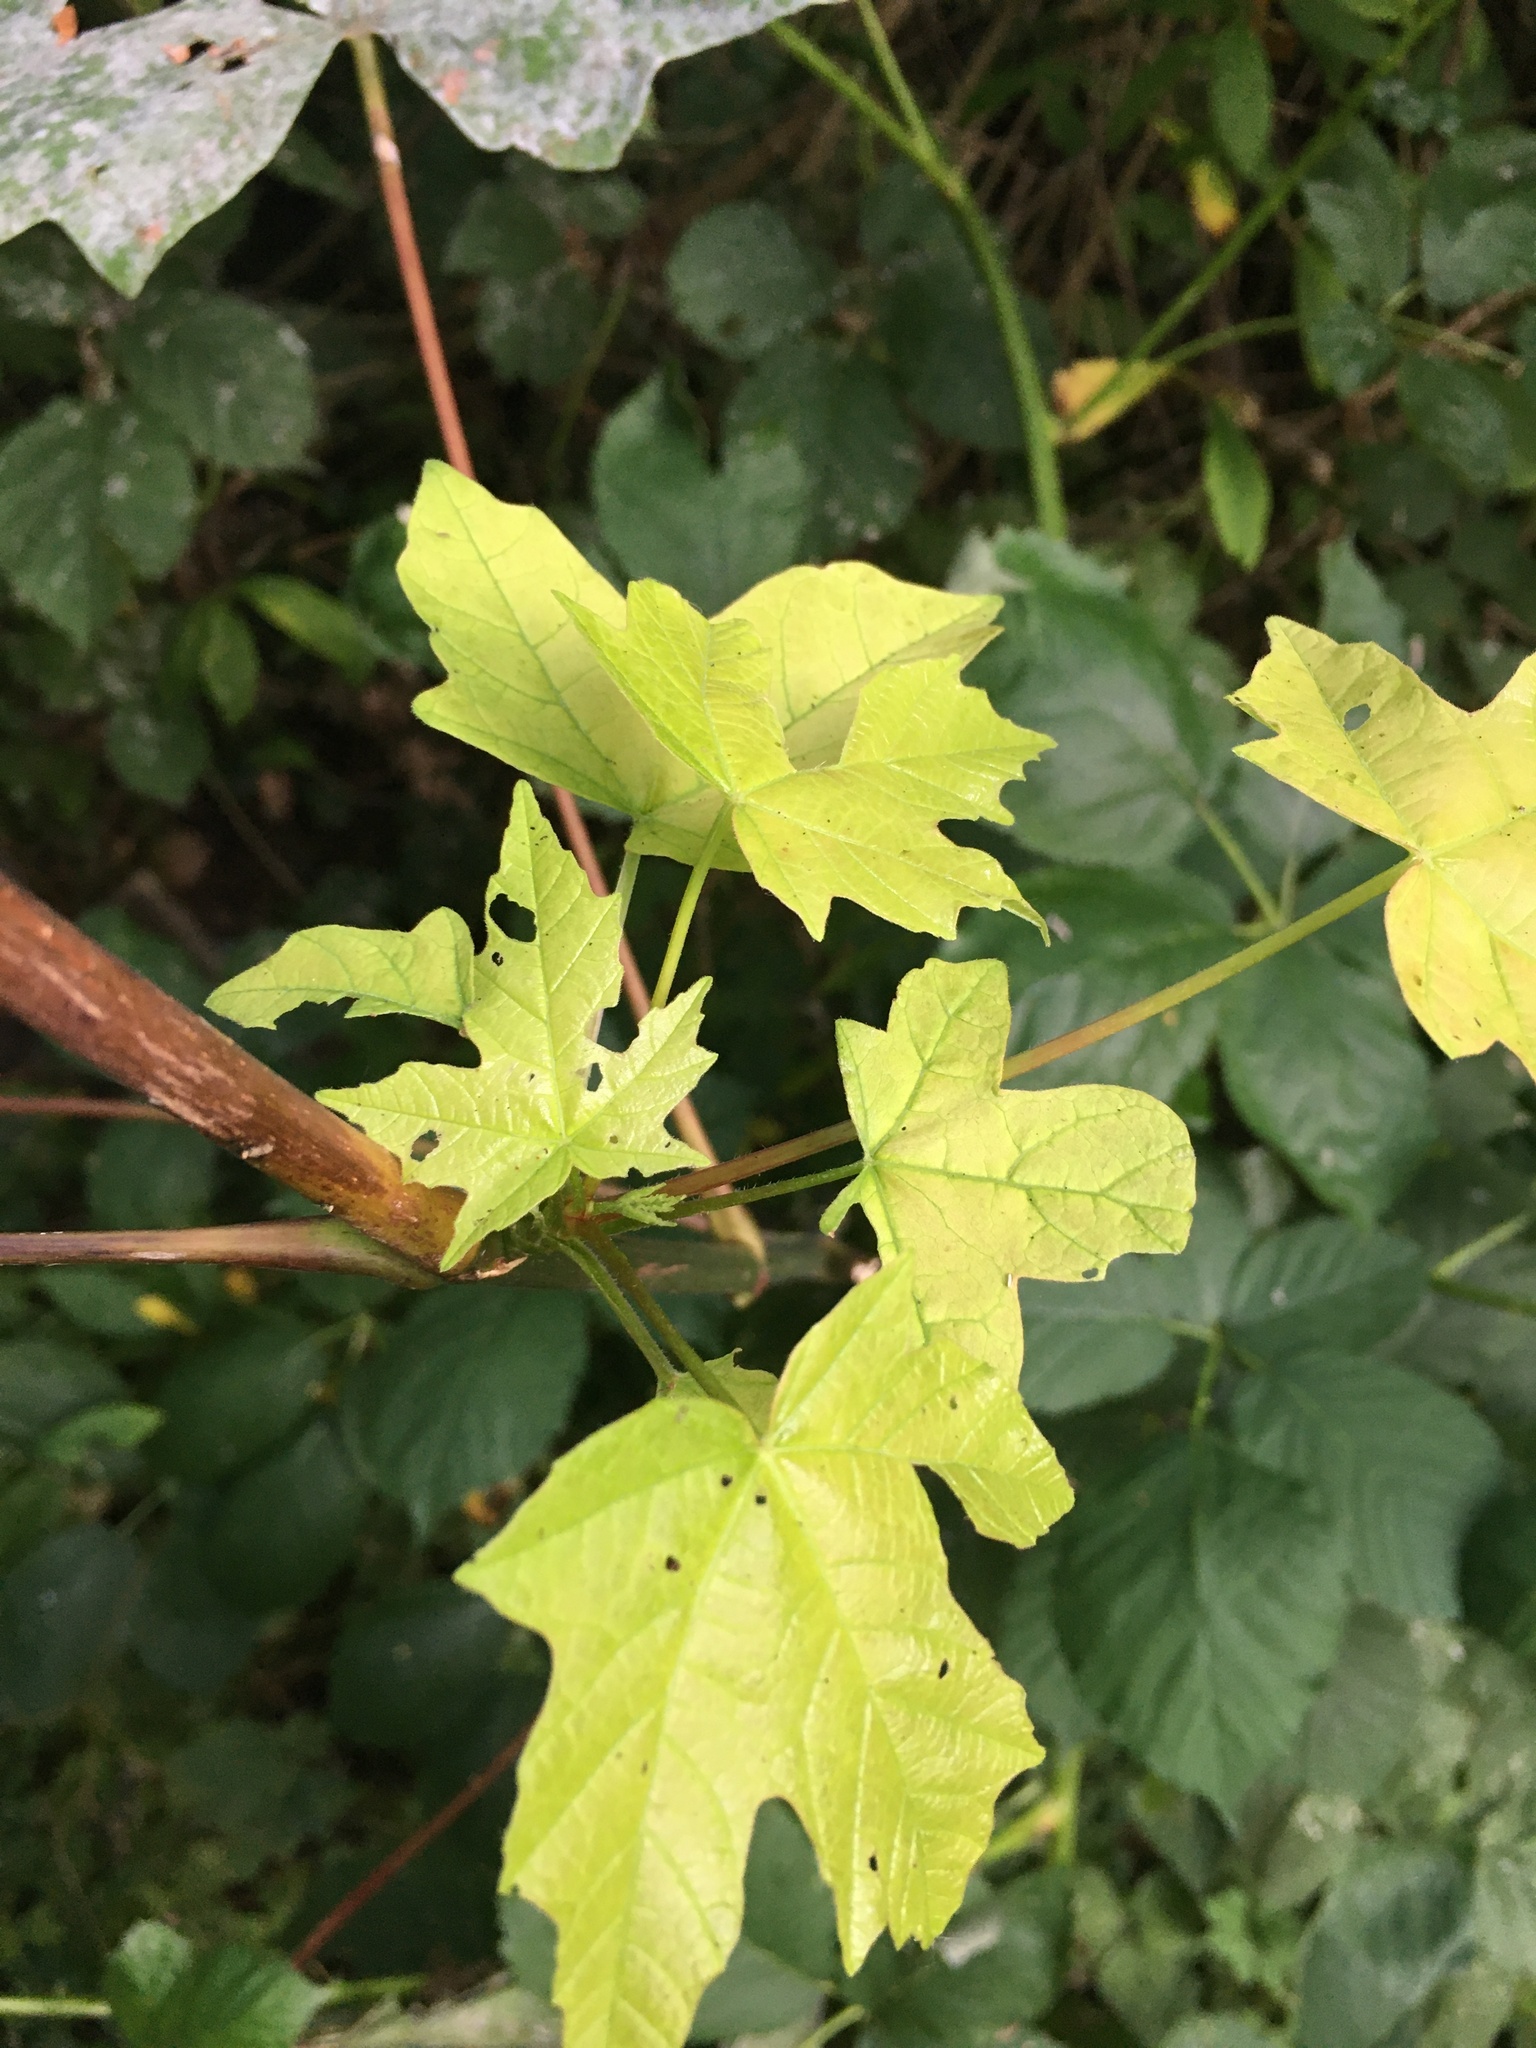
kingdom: Plantae
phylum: Tracheophyta
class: Magnoliopsida
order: Sapindales
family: Sapindaceae
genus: Acer
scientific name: Acer macrophyllum
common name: Oregon maple
